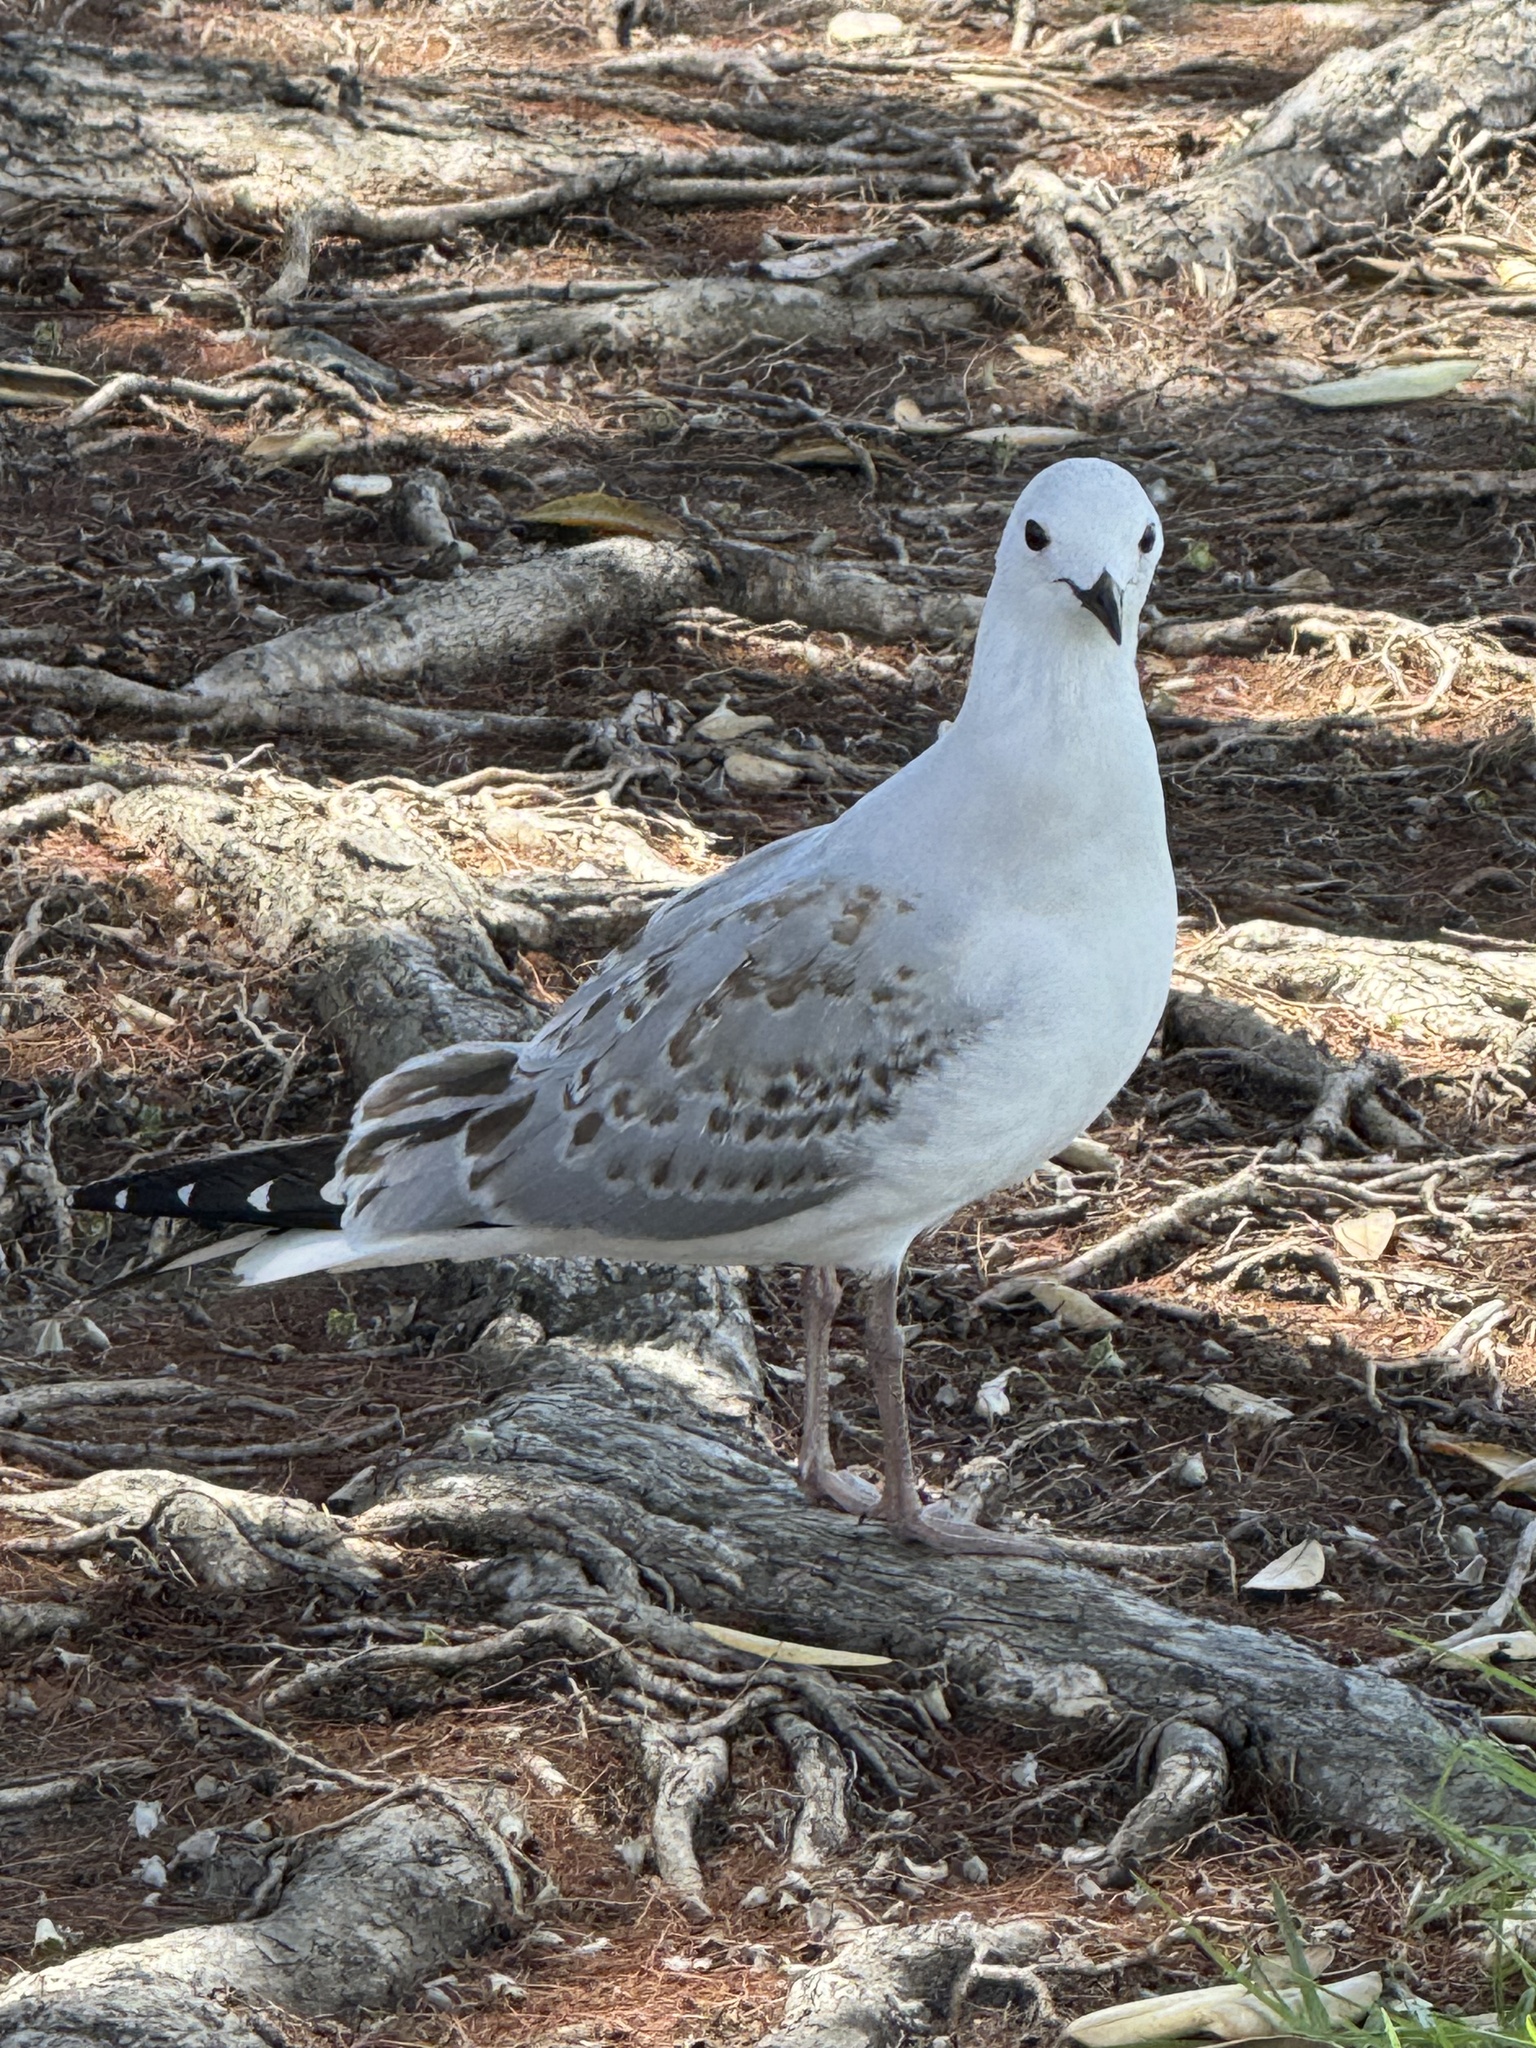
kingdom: Animalia
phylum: Chordata
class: Aves
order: Charadriiformes
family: Laridae
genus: Chroicocephalus
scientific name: Chroicocephalus novaehollandiae
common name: Silver gull
